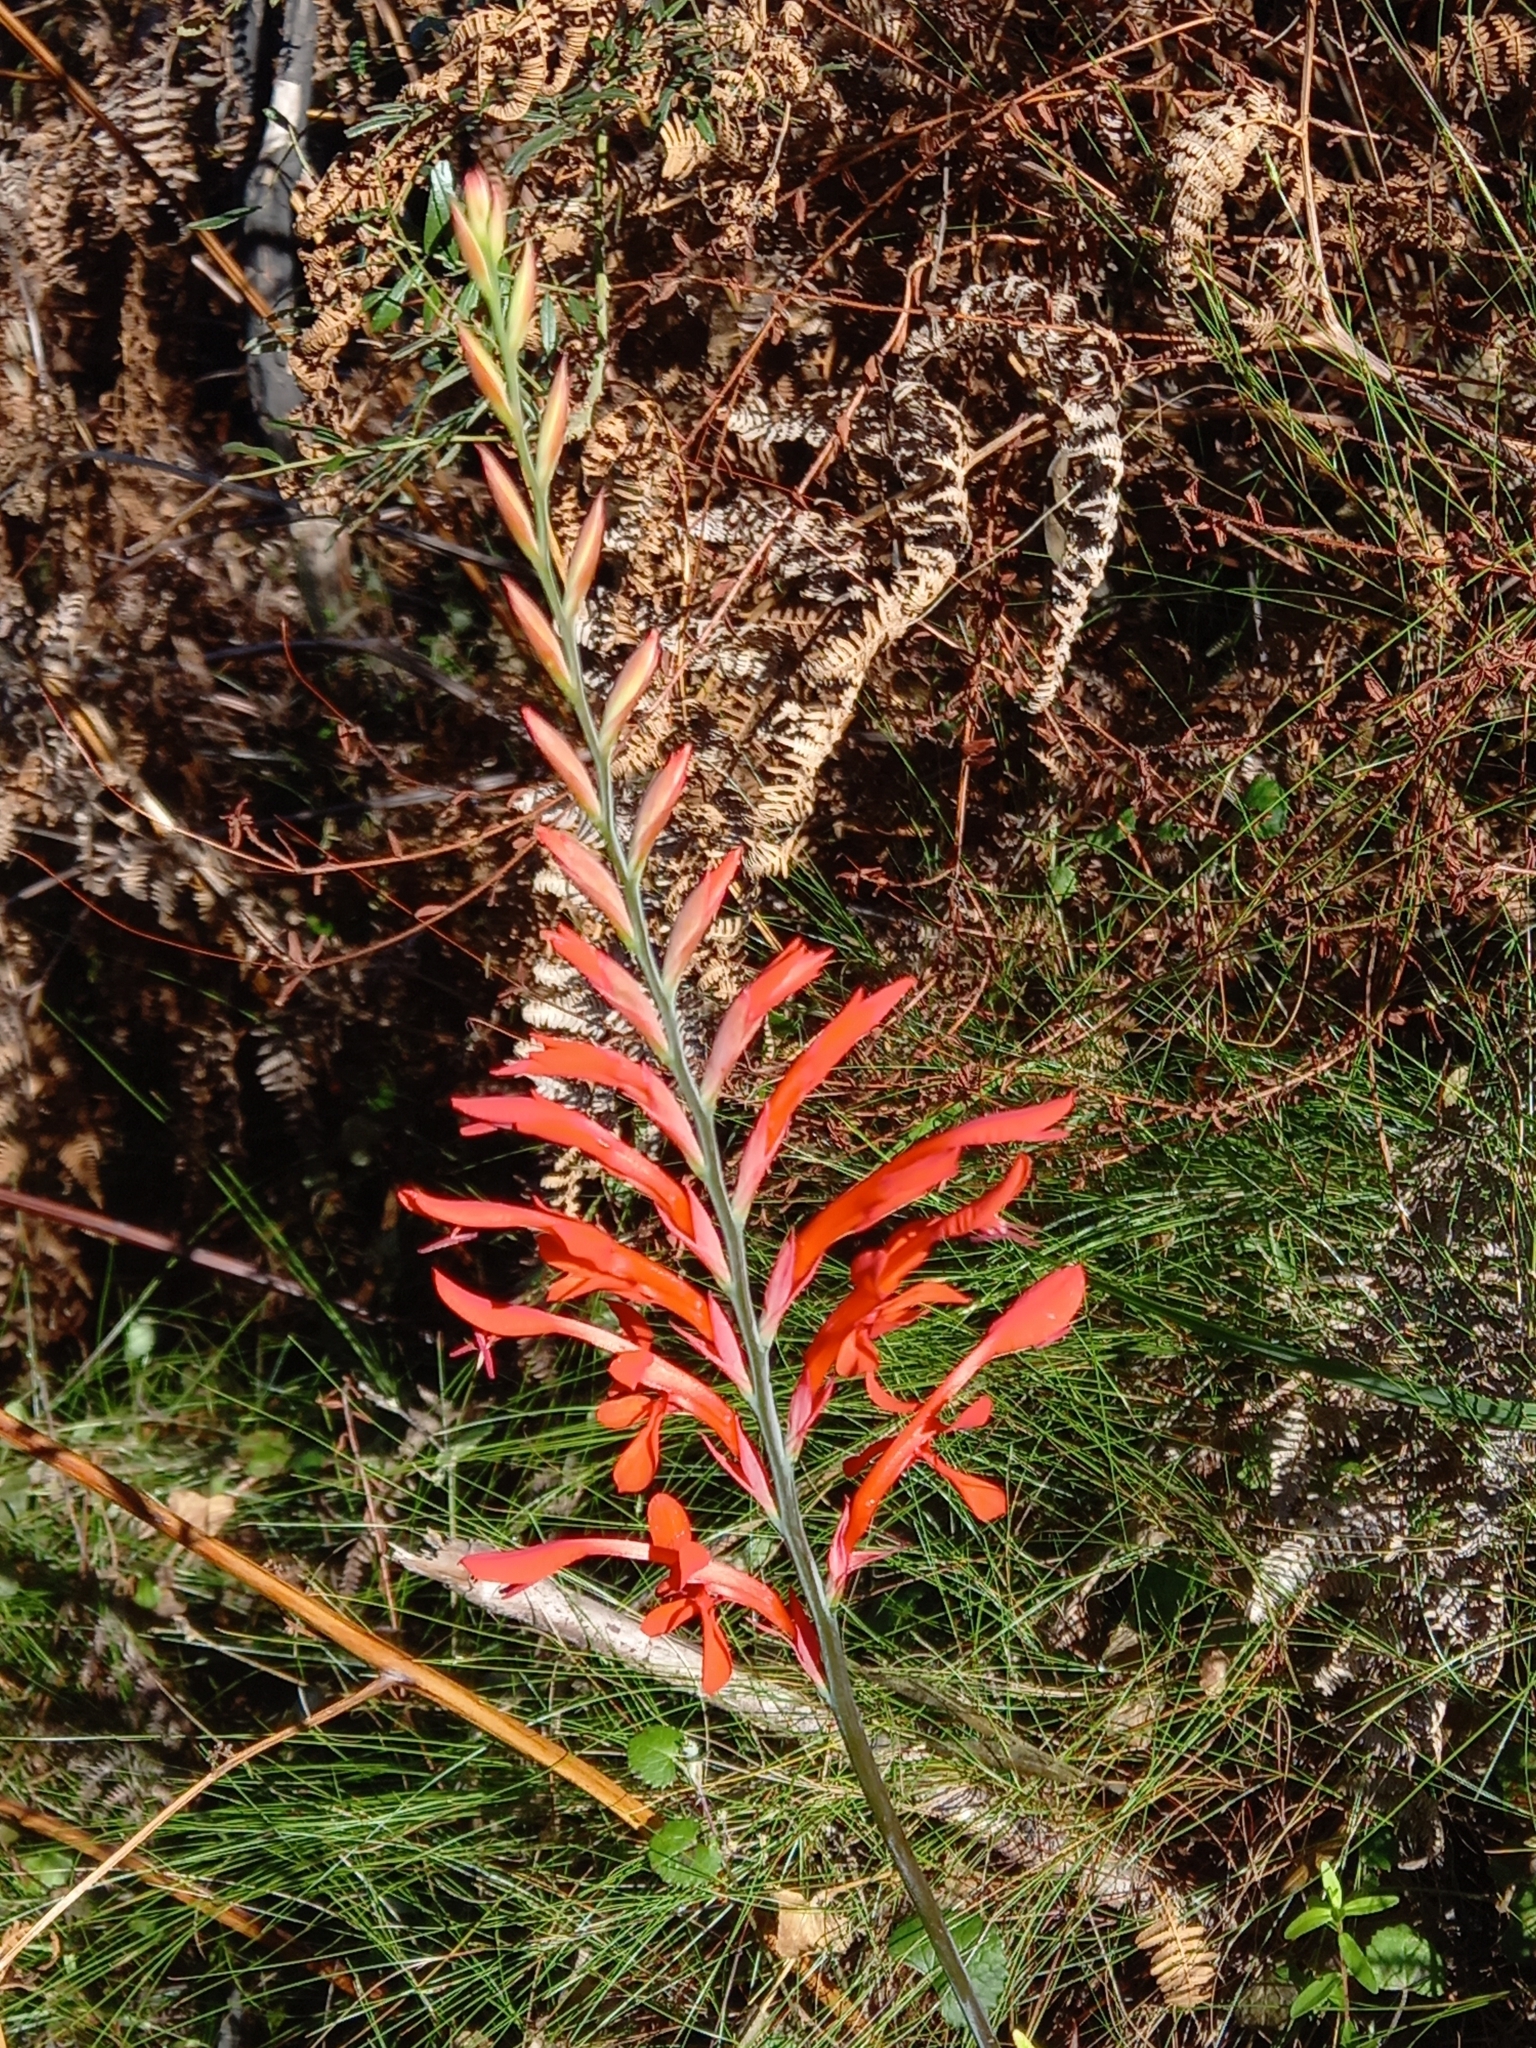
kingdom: Plantae
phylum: Tracheophyta
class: Liliopsida
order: Asparagales
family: Iridaceae
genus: Tritoniopsis
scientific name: Tritoniopsis caffra
